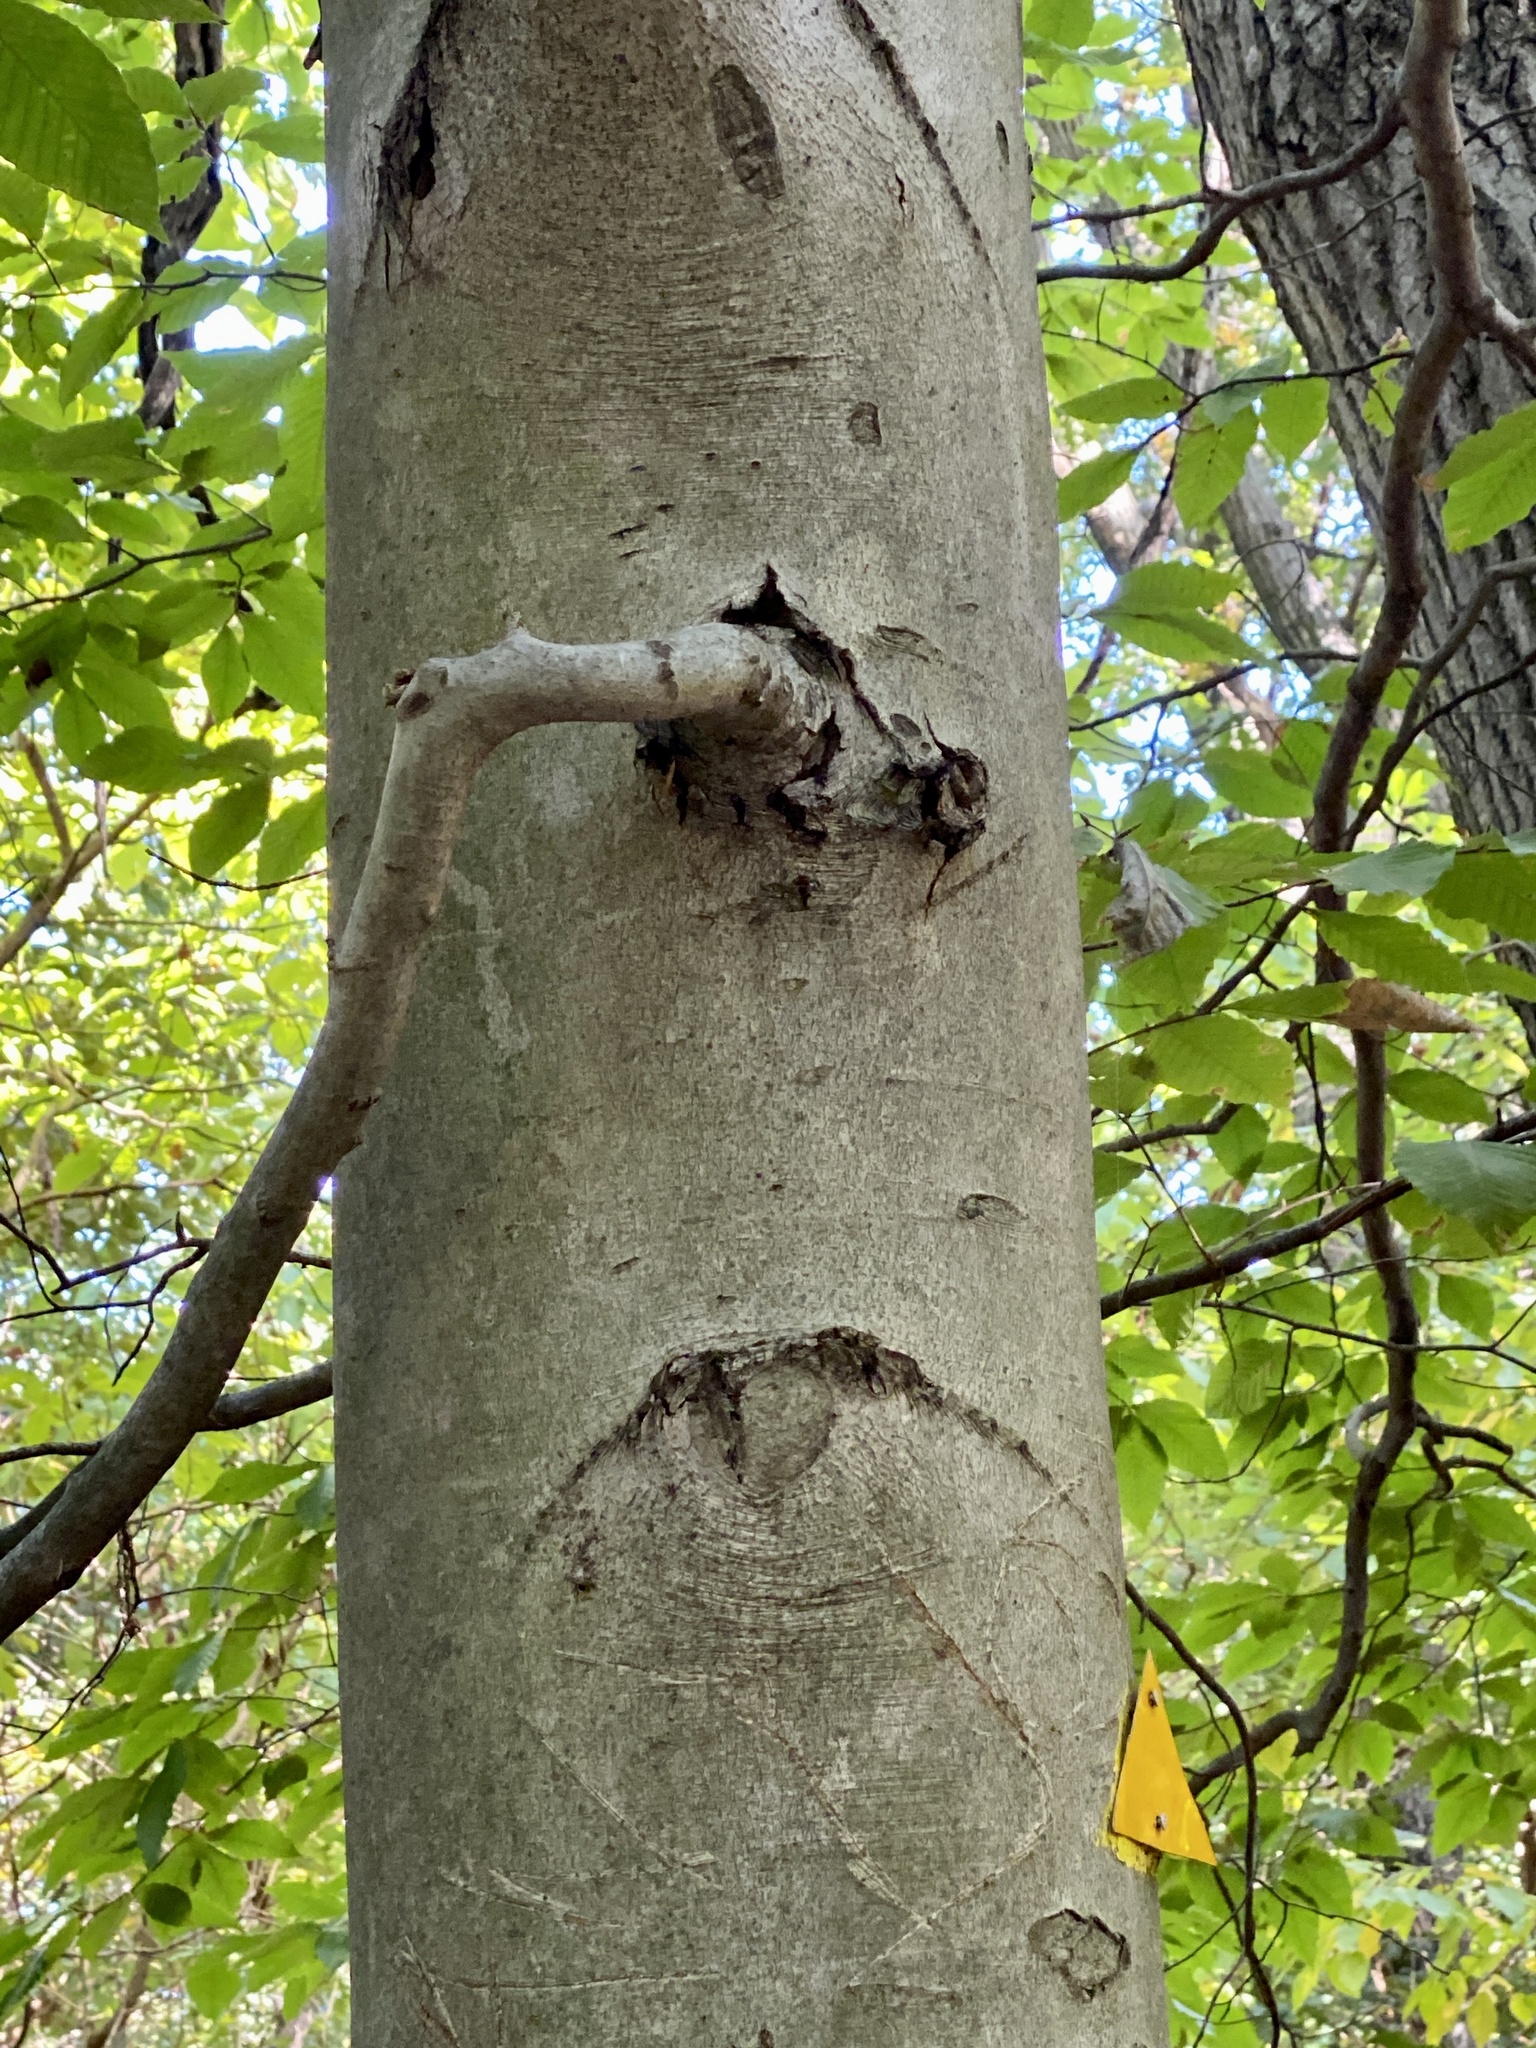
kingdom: Animalia
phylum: Nematoda
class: Chromadorea
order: Rhabditida
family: Anguinidae
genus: Litylenchus
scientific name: Litylenchus crenatae
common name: Beech leaf disease
